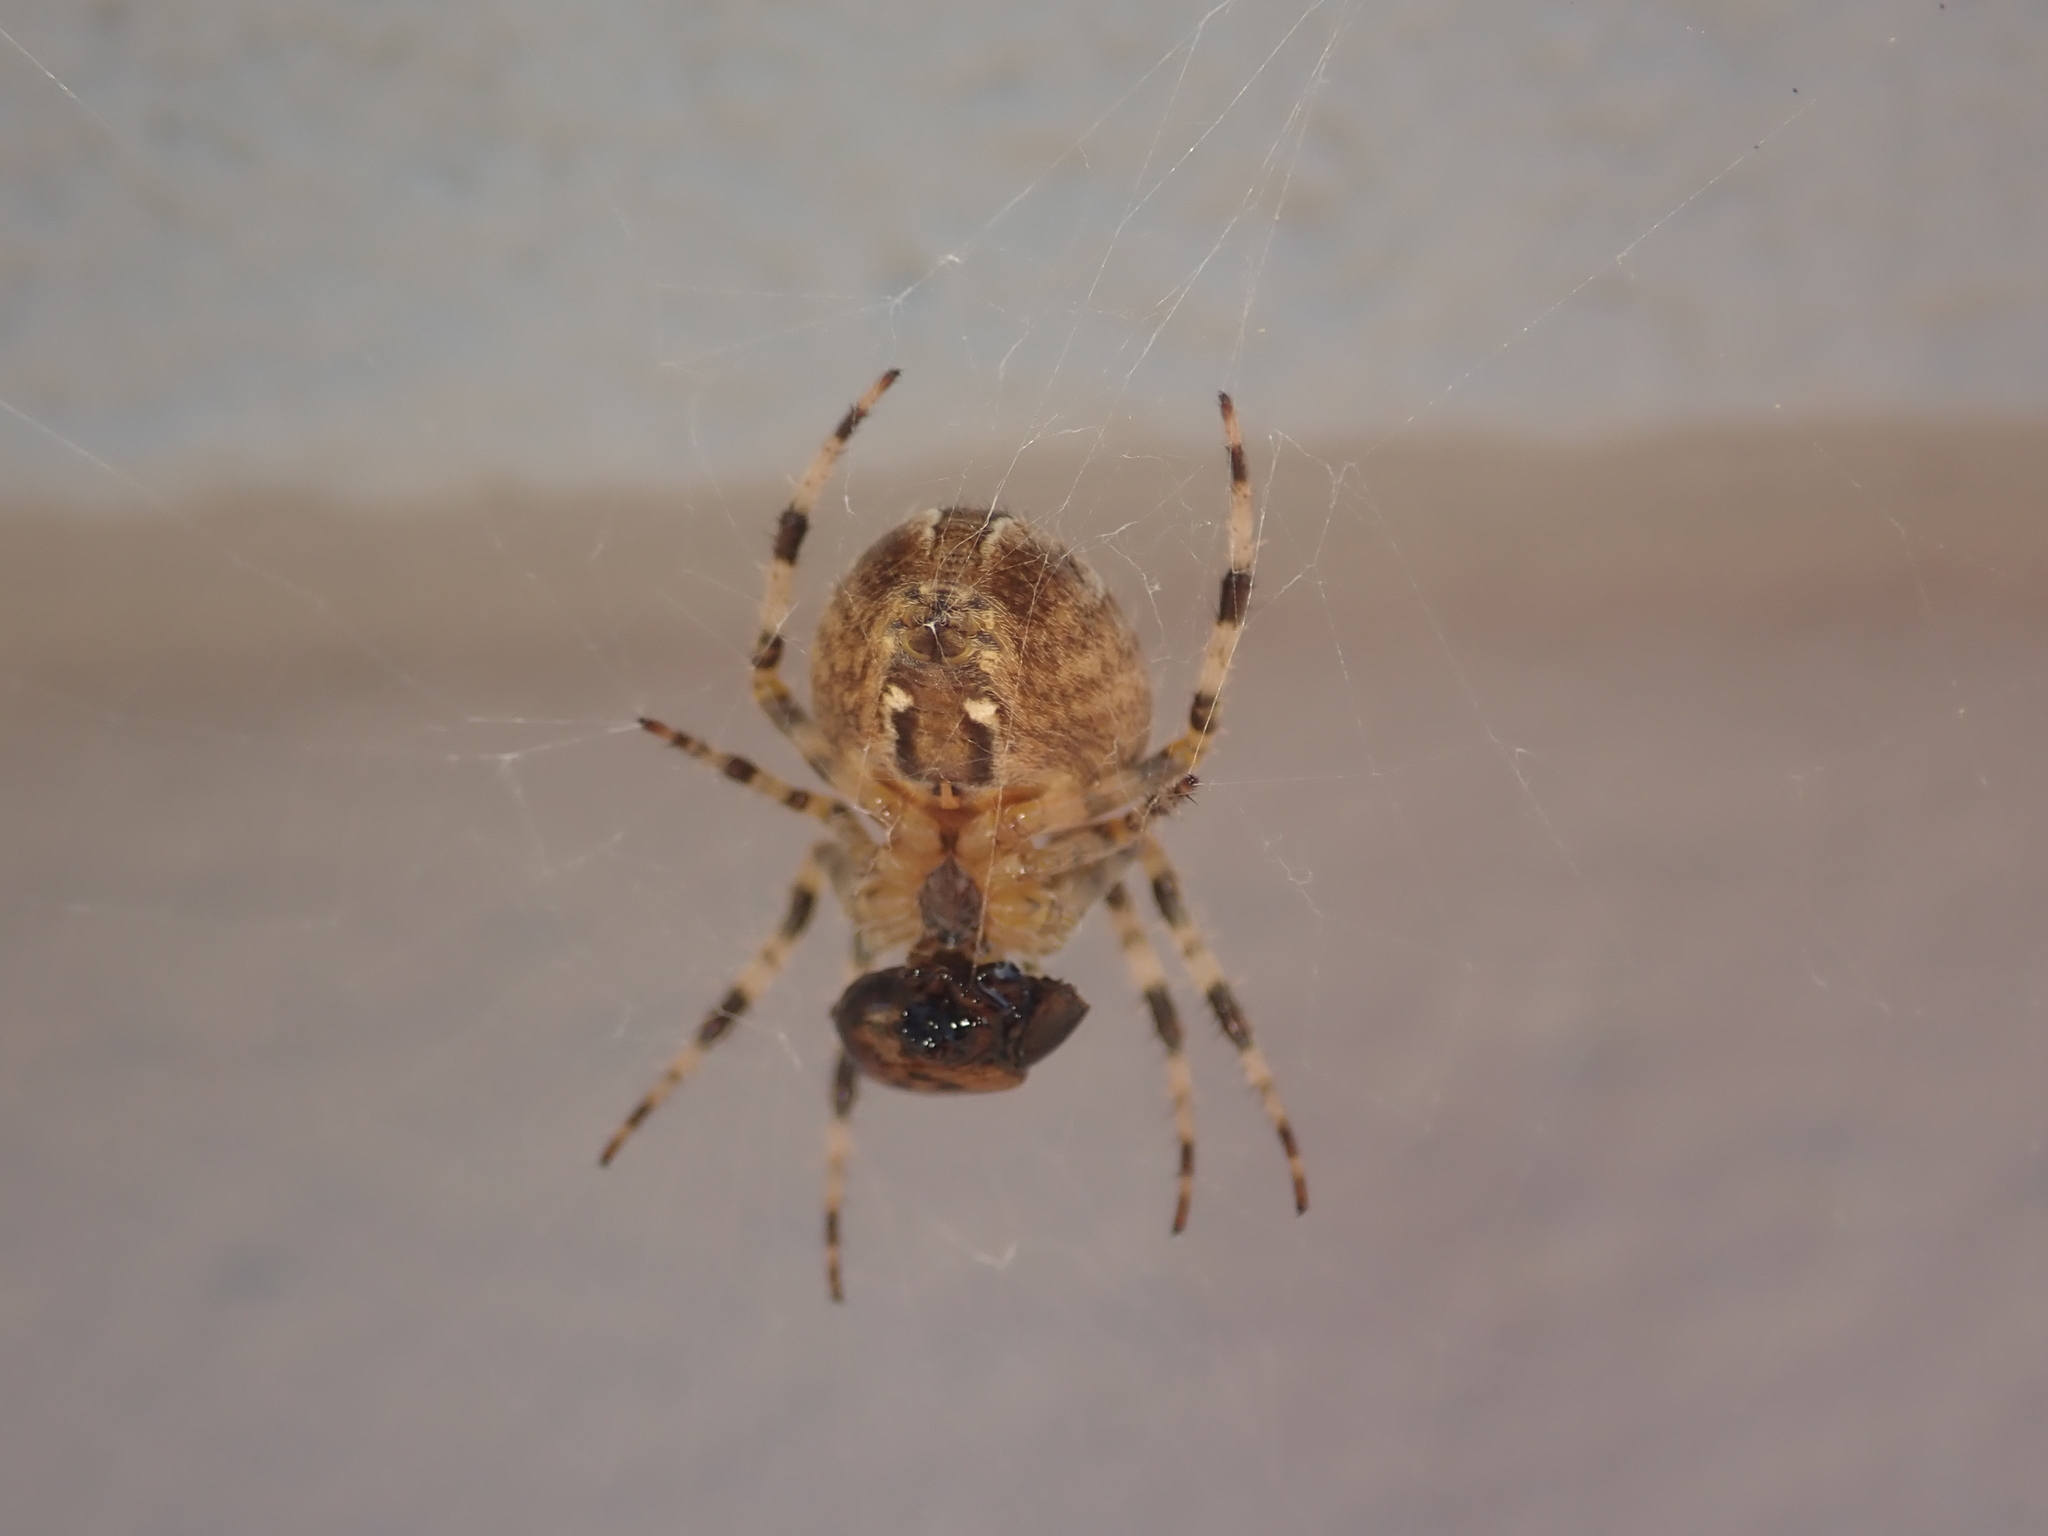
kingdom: Animalia
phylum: Arthropoda
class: Arachnida
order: Araneae
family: Araneidae
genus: Araneus
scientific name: Araneus diadematus
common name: Cross orbweaver
